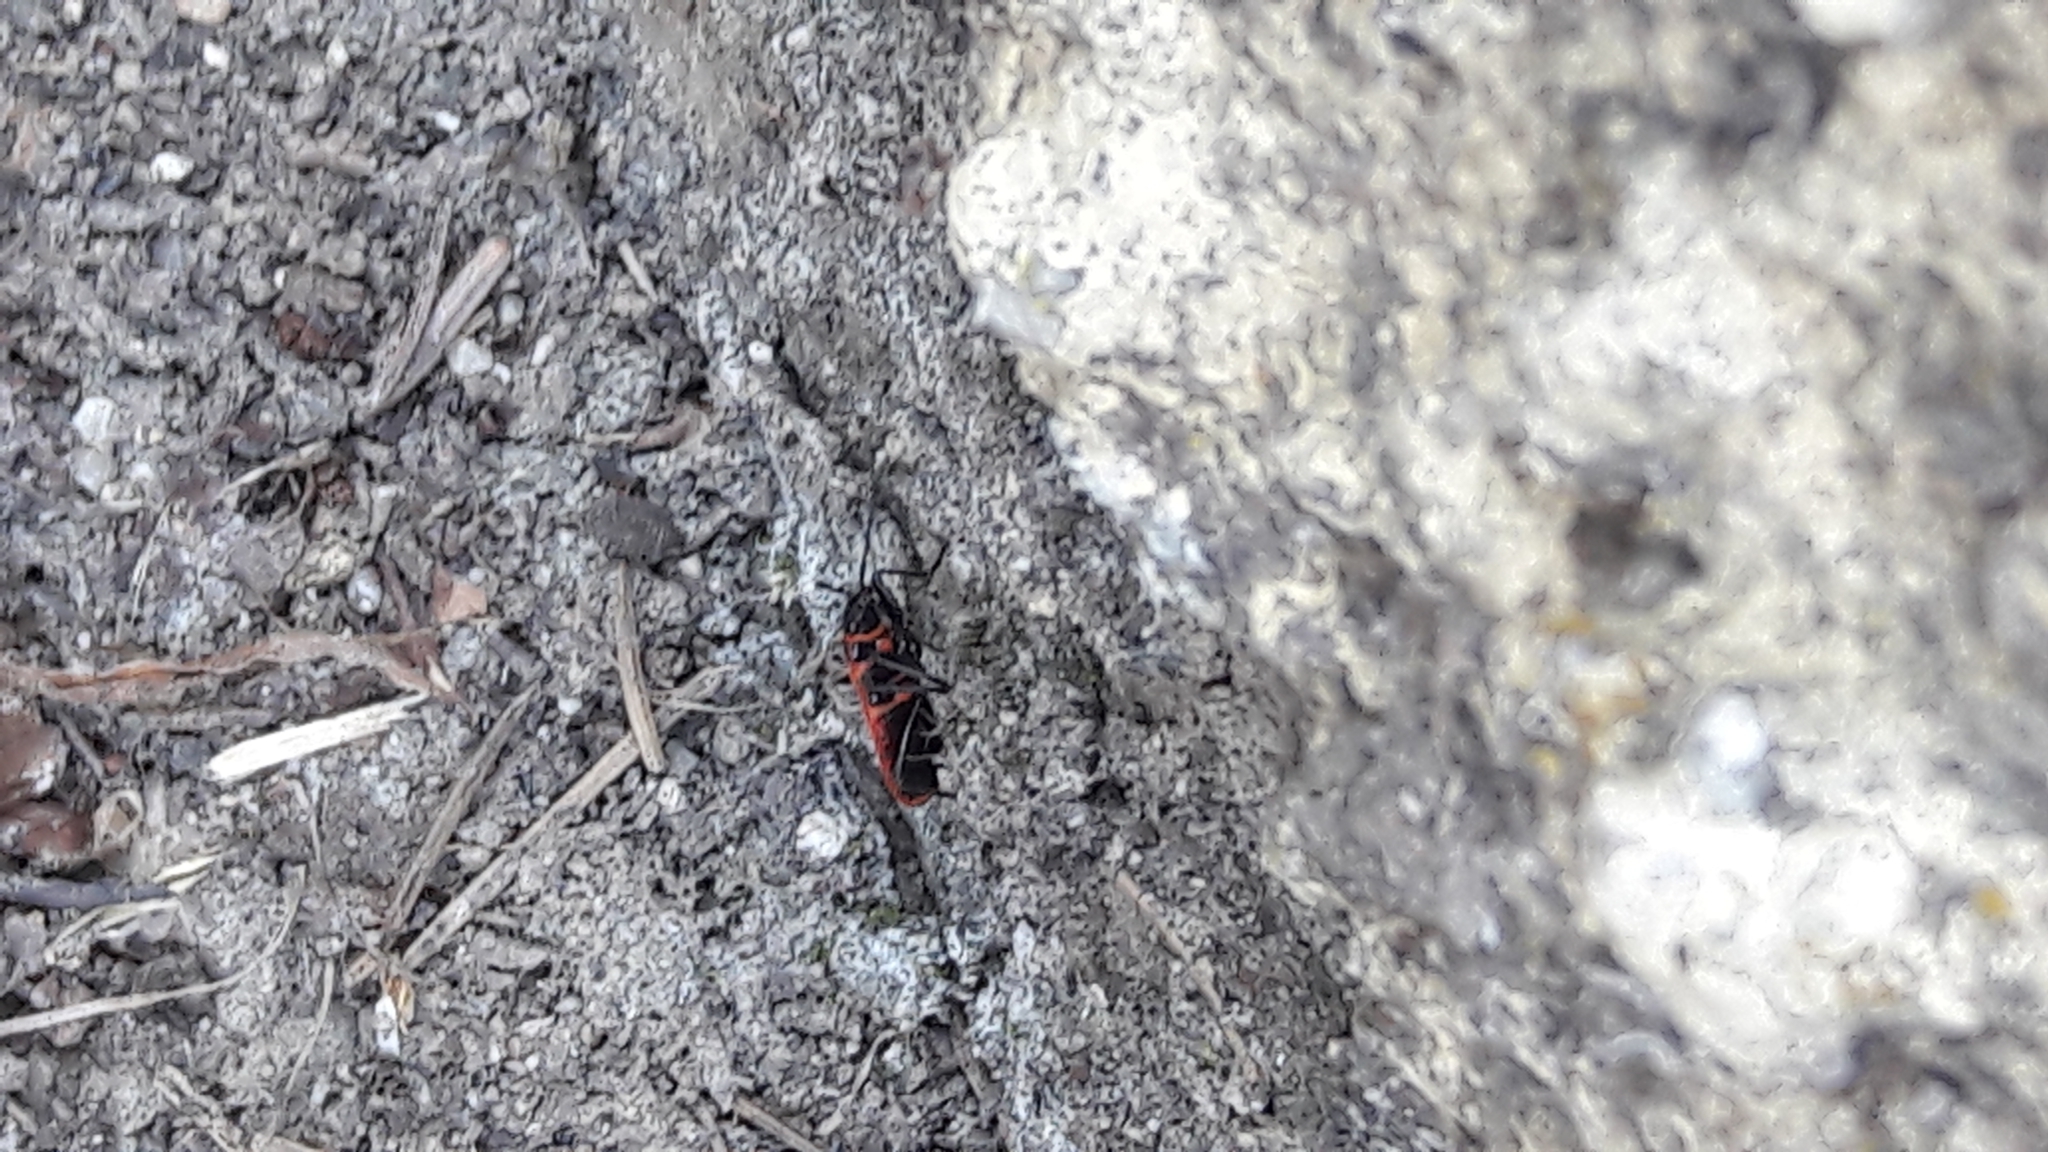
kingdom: Animalia
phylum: Arthropoda
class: Insecta
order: Hemiptera
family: Pyrrhocoridae
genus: Pyrrhocoris
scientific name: Pyrrhocoris apterus
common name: Firebug
